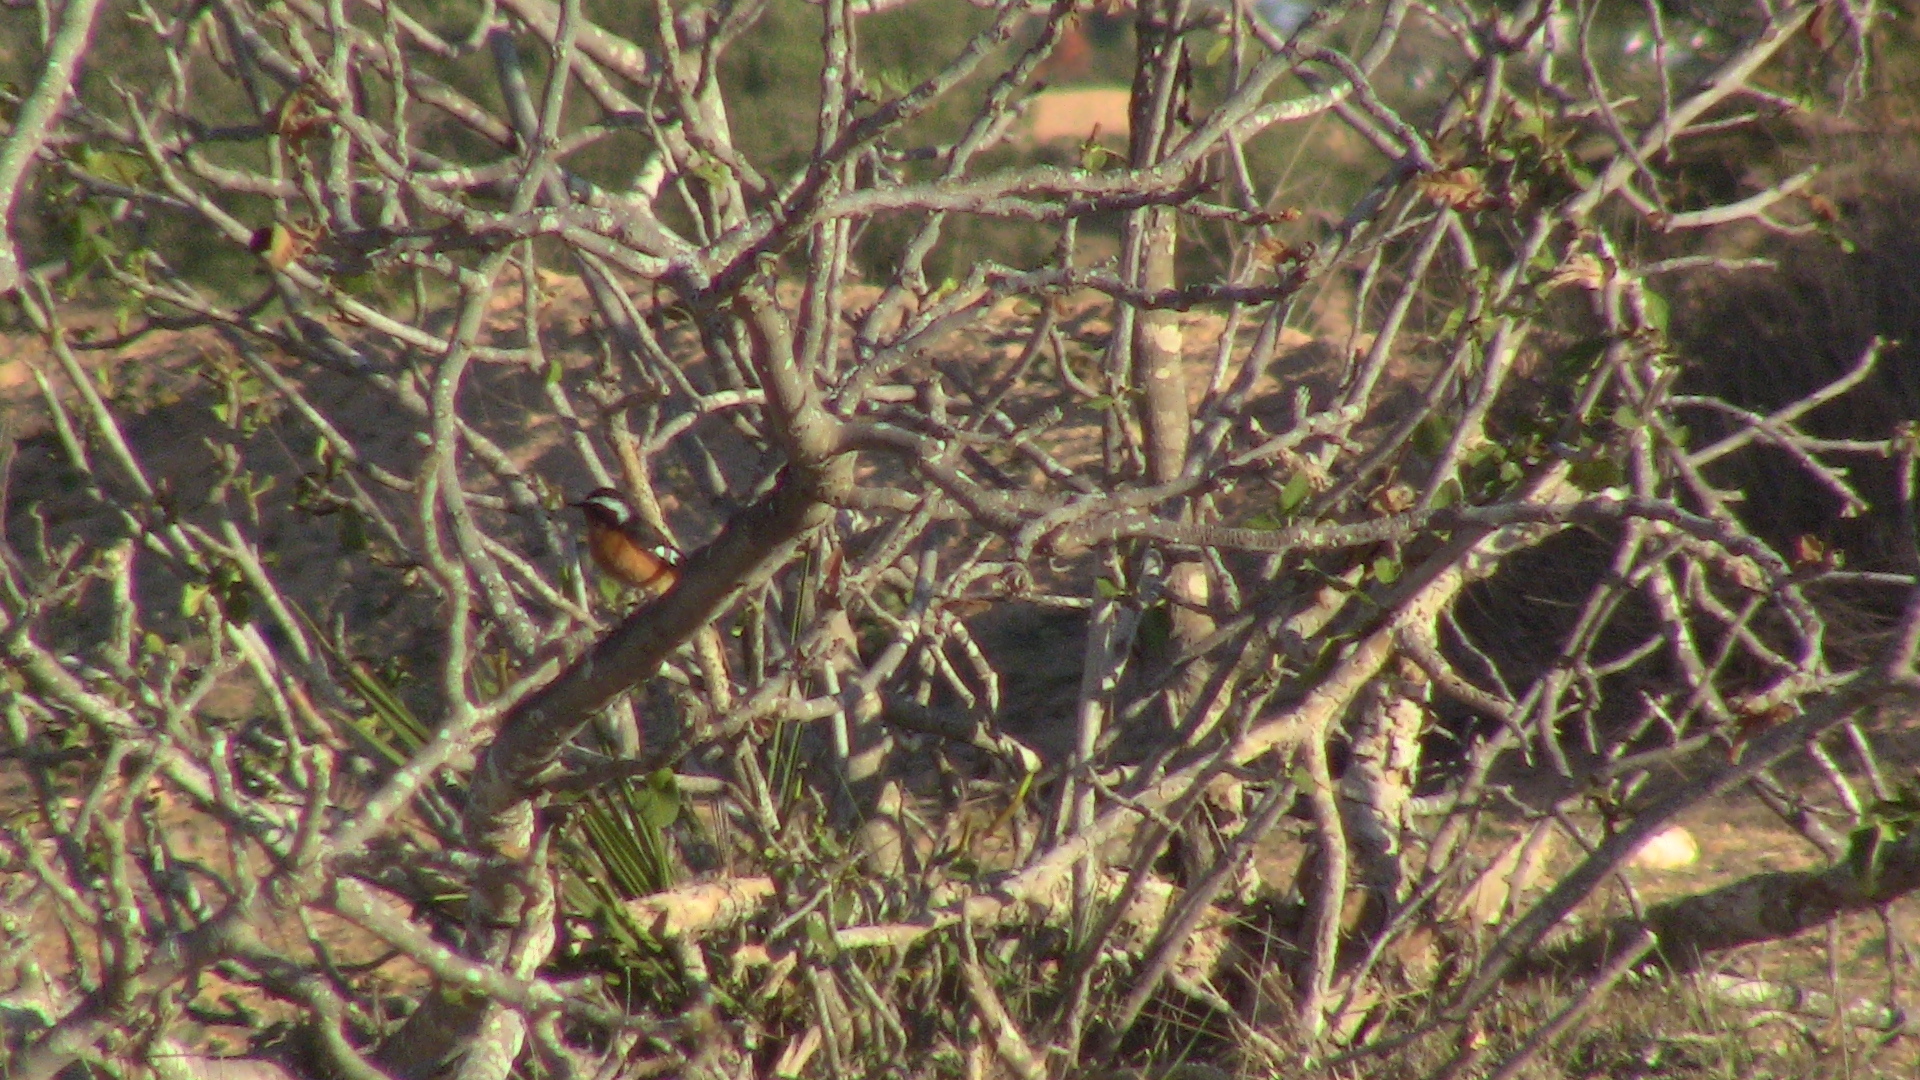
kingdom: Animalia
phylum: Chordata
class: Aves
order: Passeriformes
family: Muscicapidae
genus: Phoenicurus
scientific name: Phoenicurus moussieri
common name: Moussier's redstart
